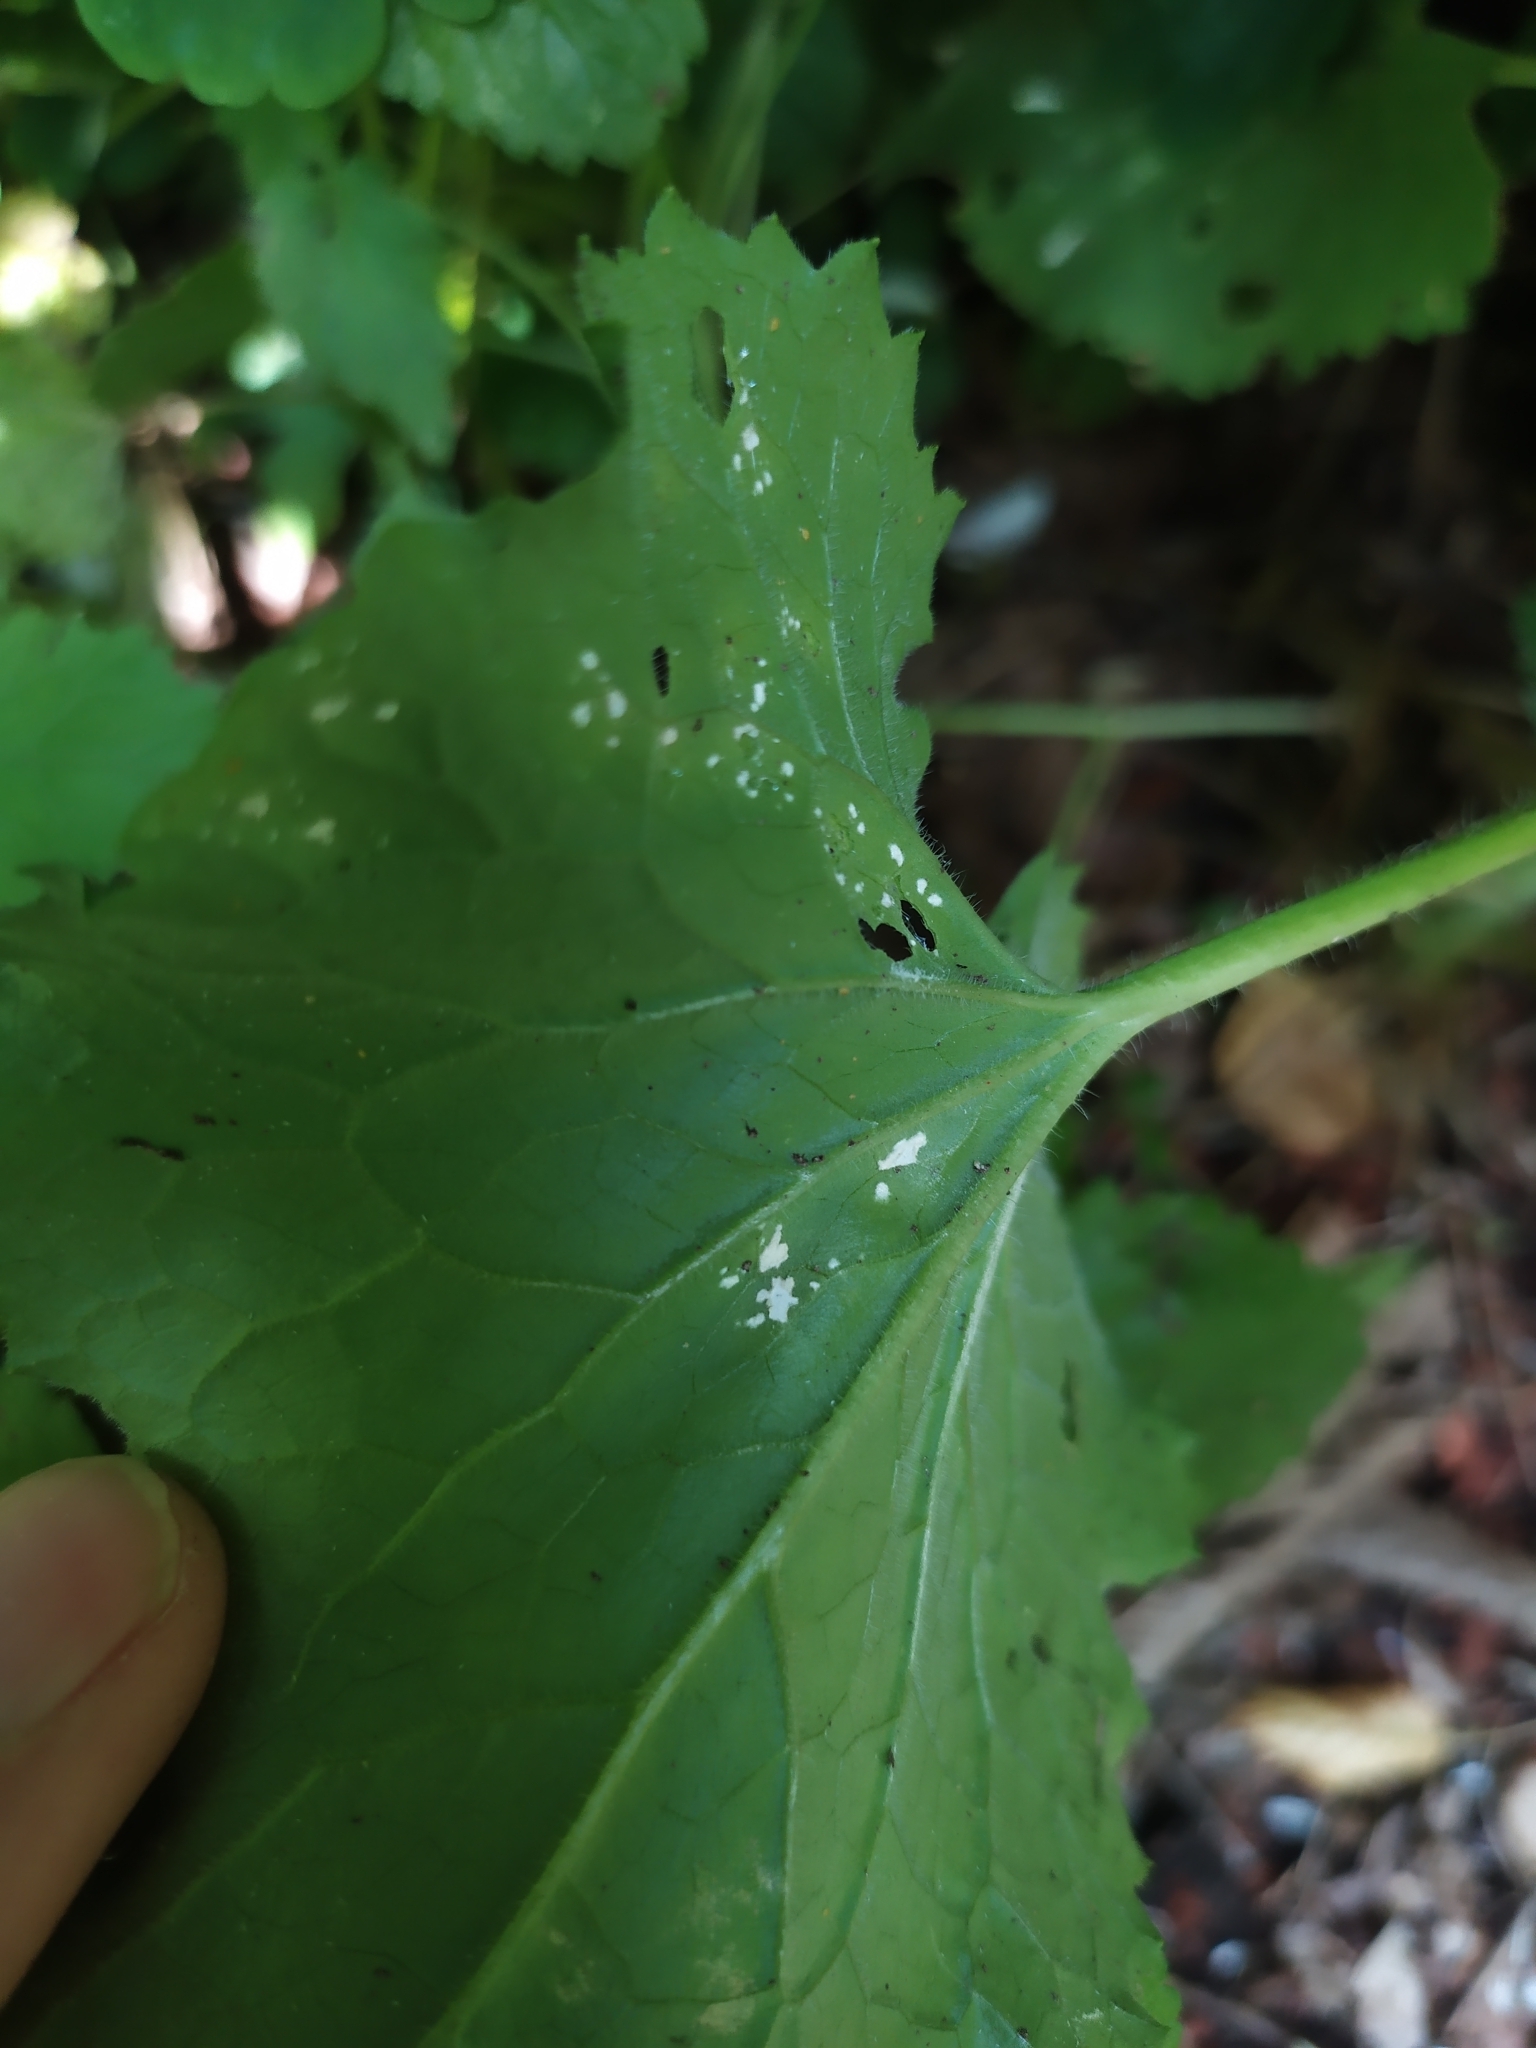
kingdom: Chromista
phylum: Oomycota
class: Peronosporea
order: Albuginales
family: Albuginaceae
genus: Albugo
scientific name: Albugo candida
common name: Crucifer white blister
